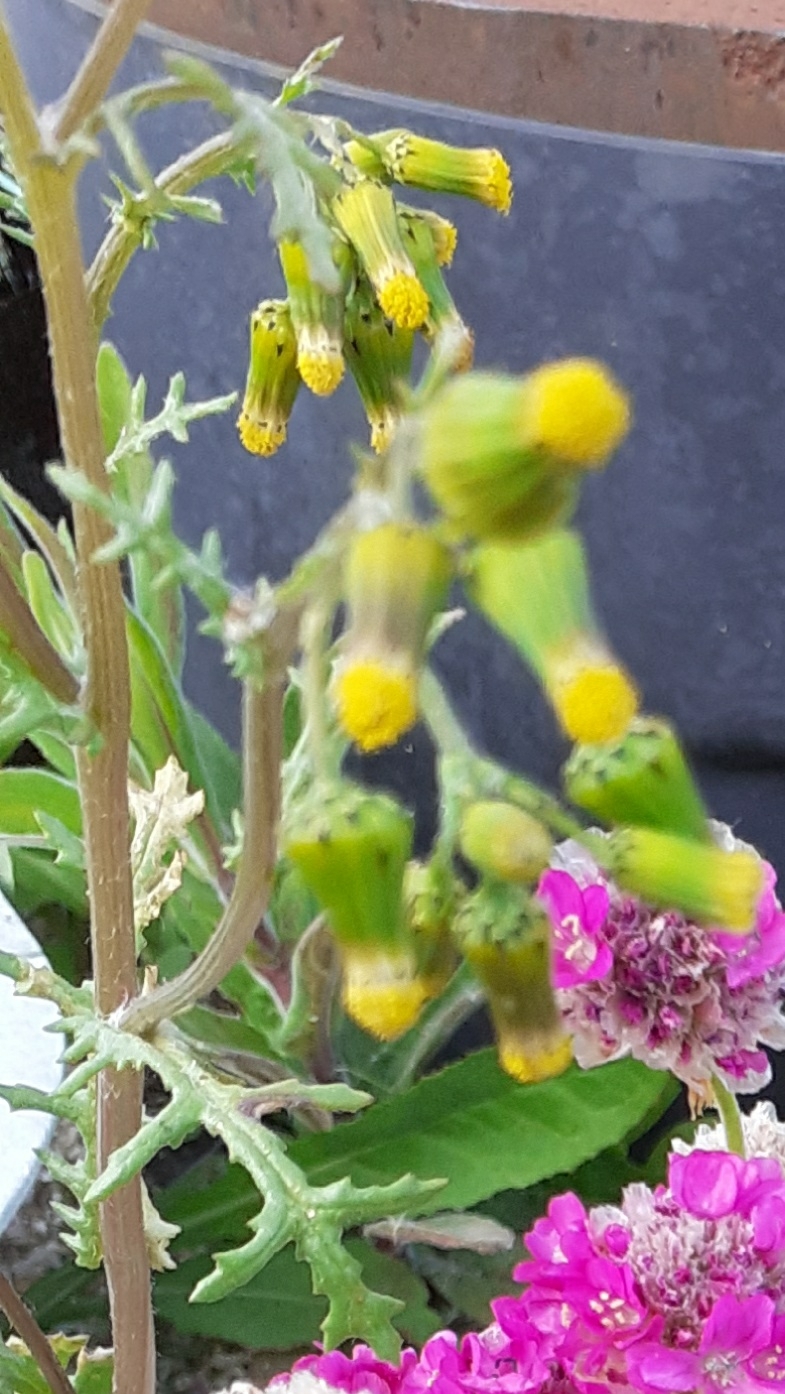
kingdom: Plantae
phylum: Tracheophyta
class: Magnoliopsida
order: Asterales
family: Asteraceae
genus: Senecio
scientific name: Senecio vulgaris
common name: Old-man-in-the-spring
